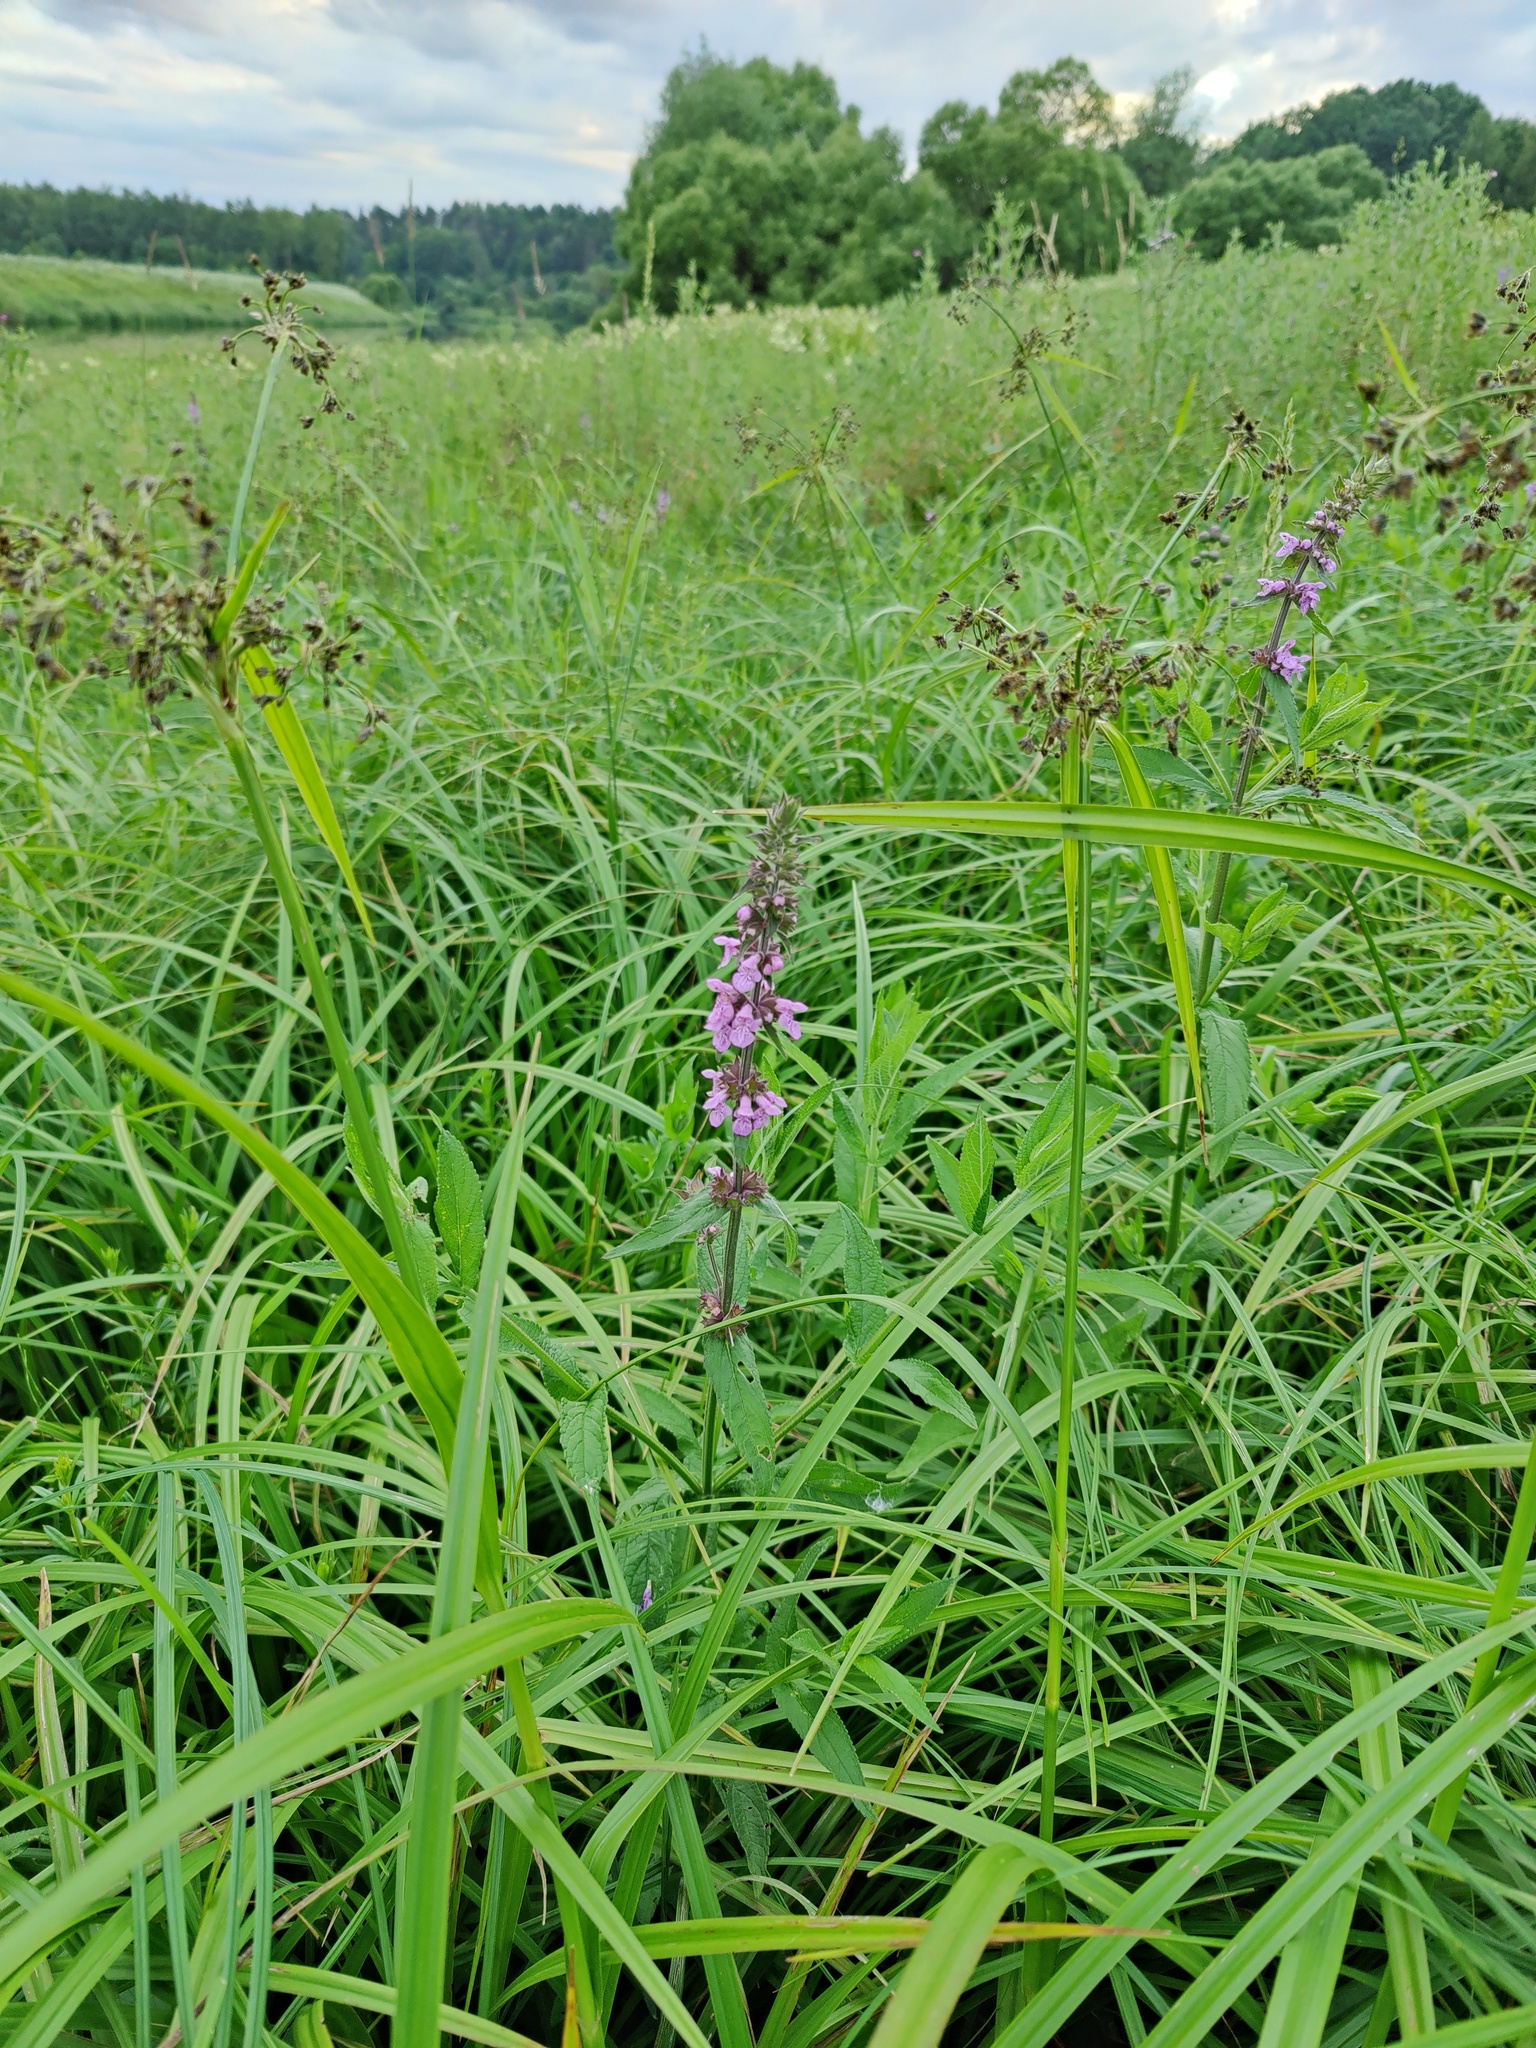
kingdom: Plantae
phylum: Tracheophyta
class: Magnoliopsida
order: Lamiales
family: Lamiaceae
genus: Stachys
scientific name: Stachys palustris
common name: Marsh woundwort
